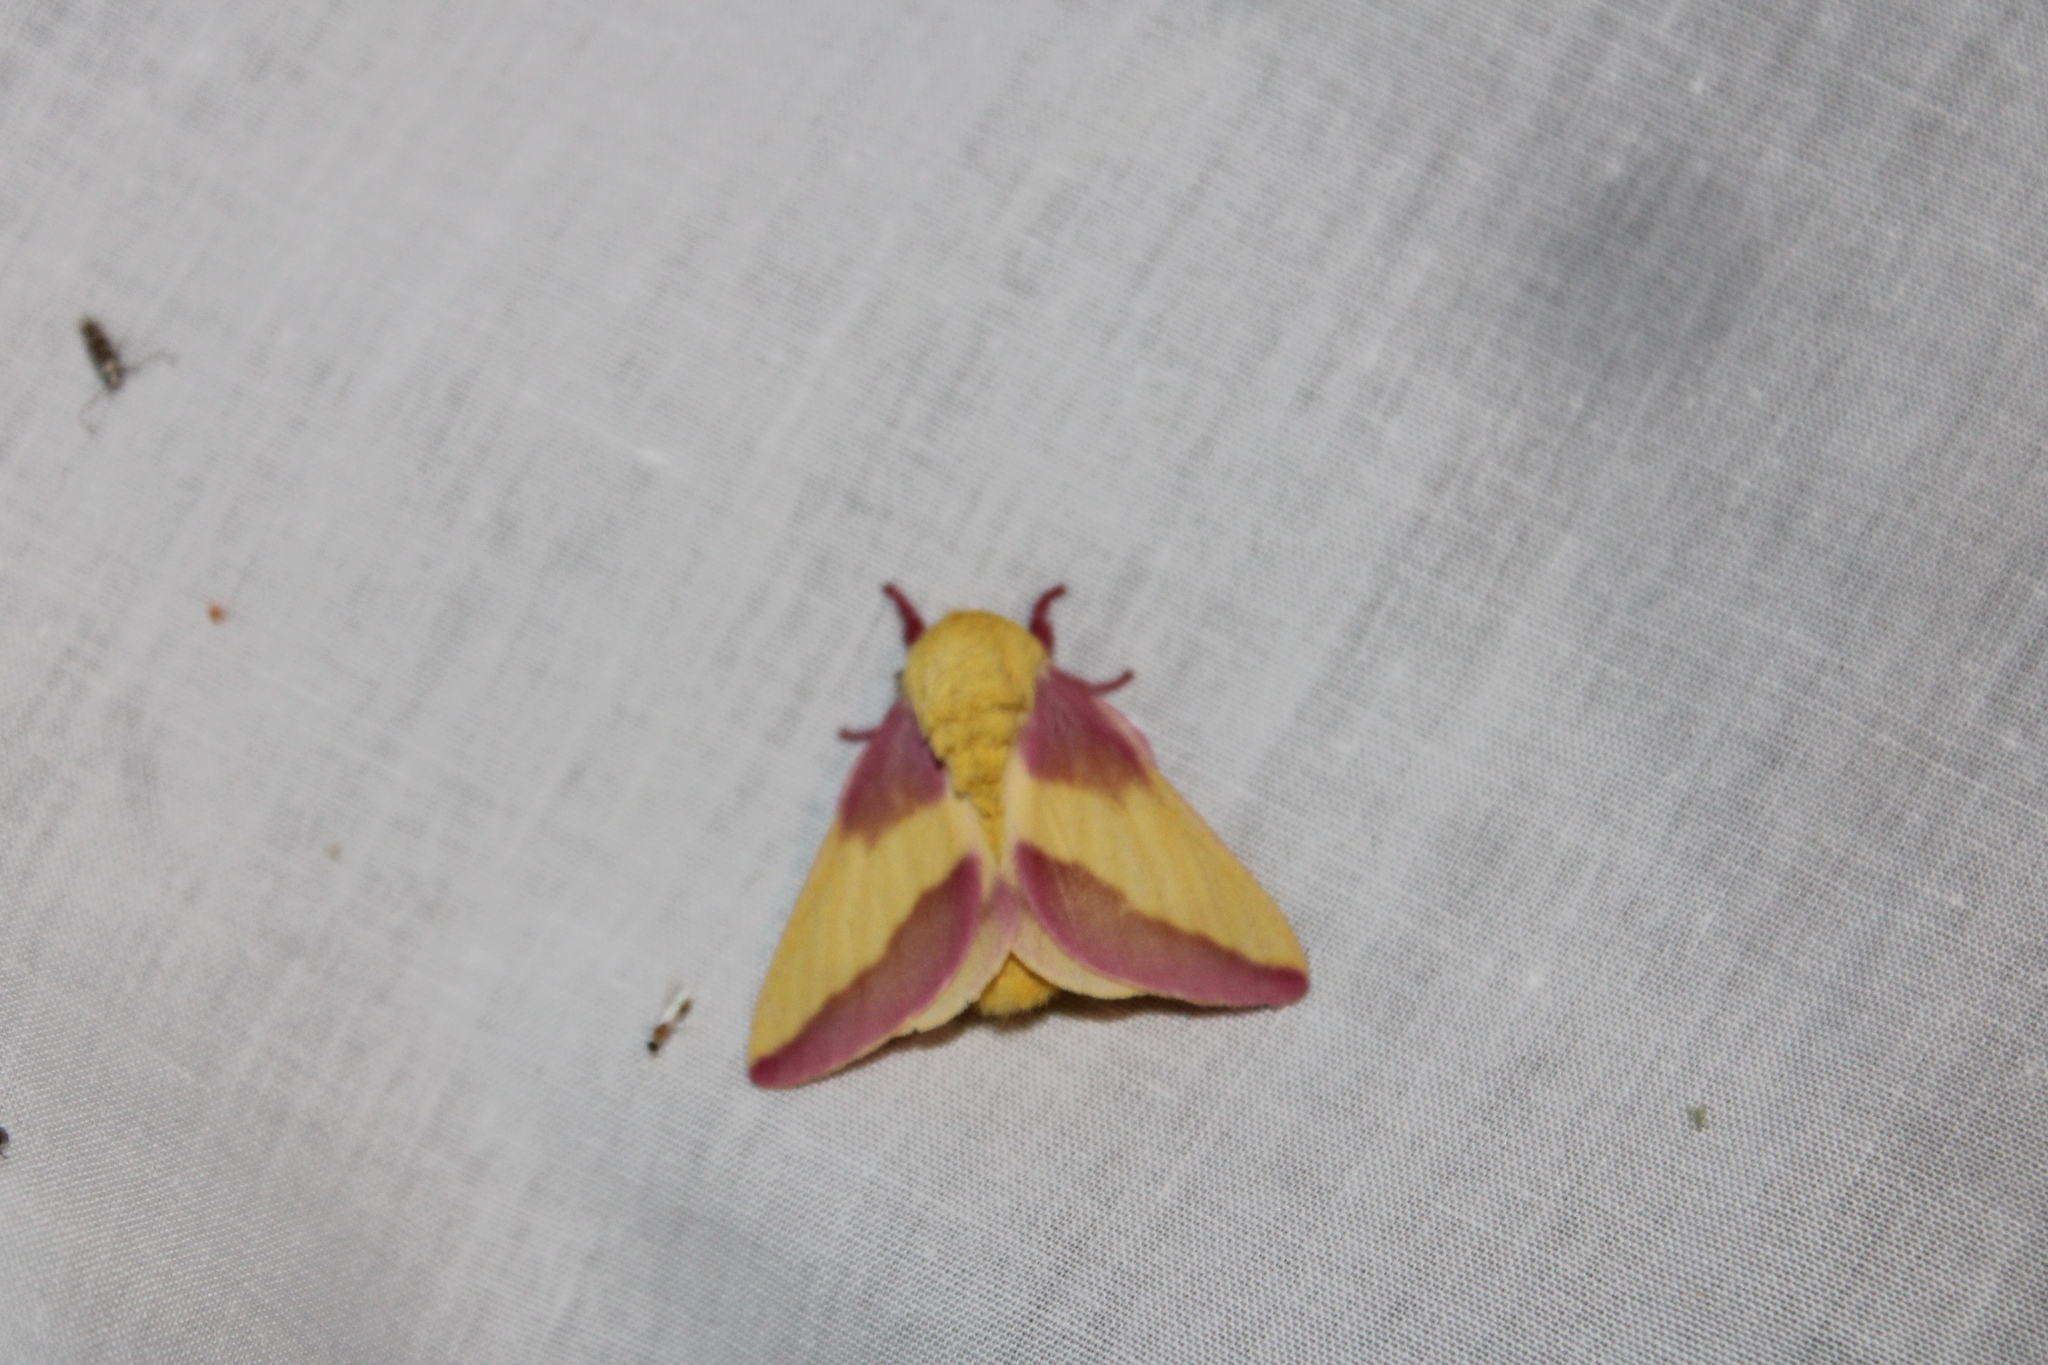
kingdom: Animalia
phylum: Arthropoda
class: Insecta
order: Lepidoptera
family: Saturniidae
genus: Dryocampa
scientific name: Dryocampa rubicunda
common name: Rosy maple moth
